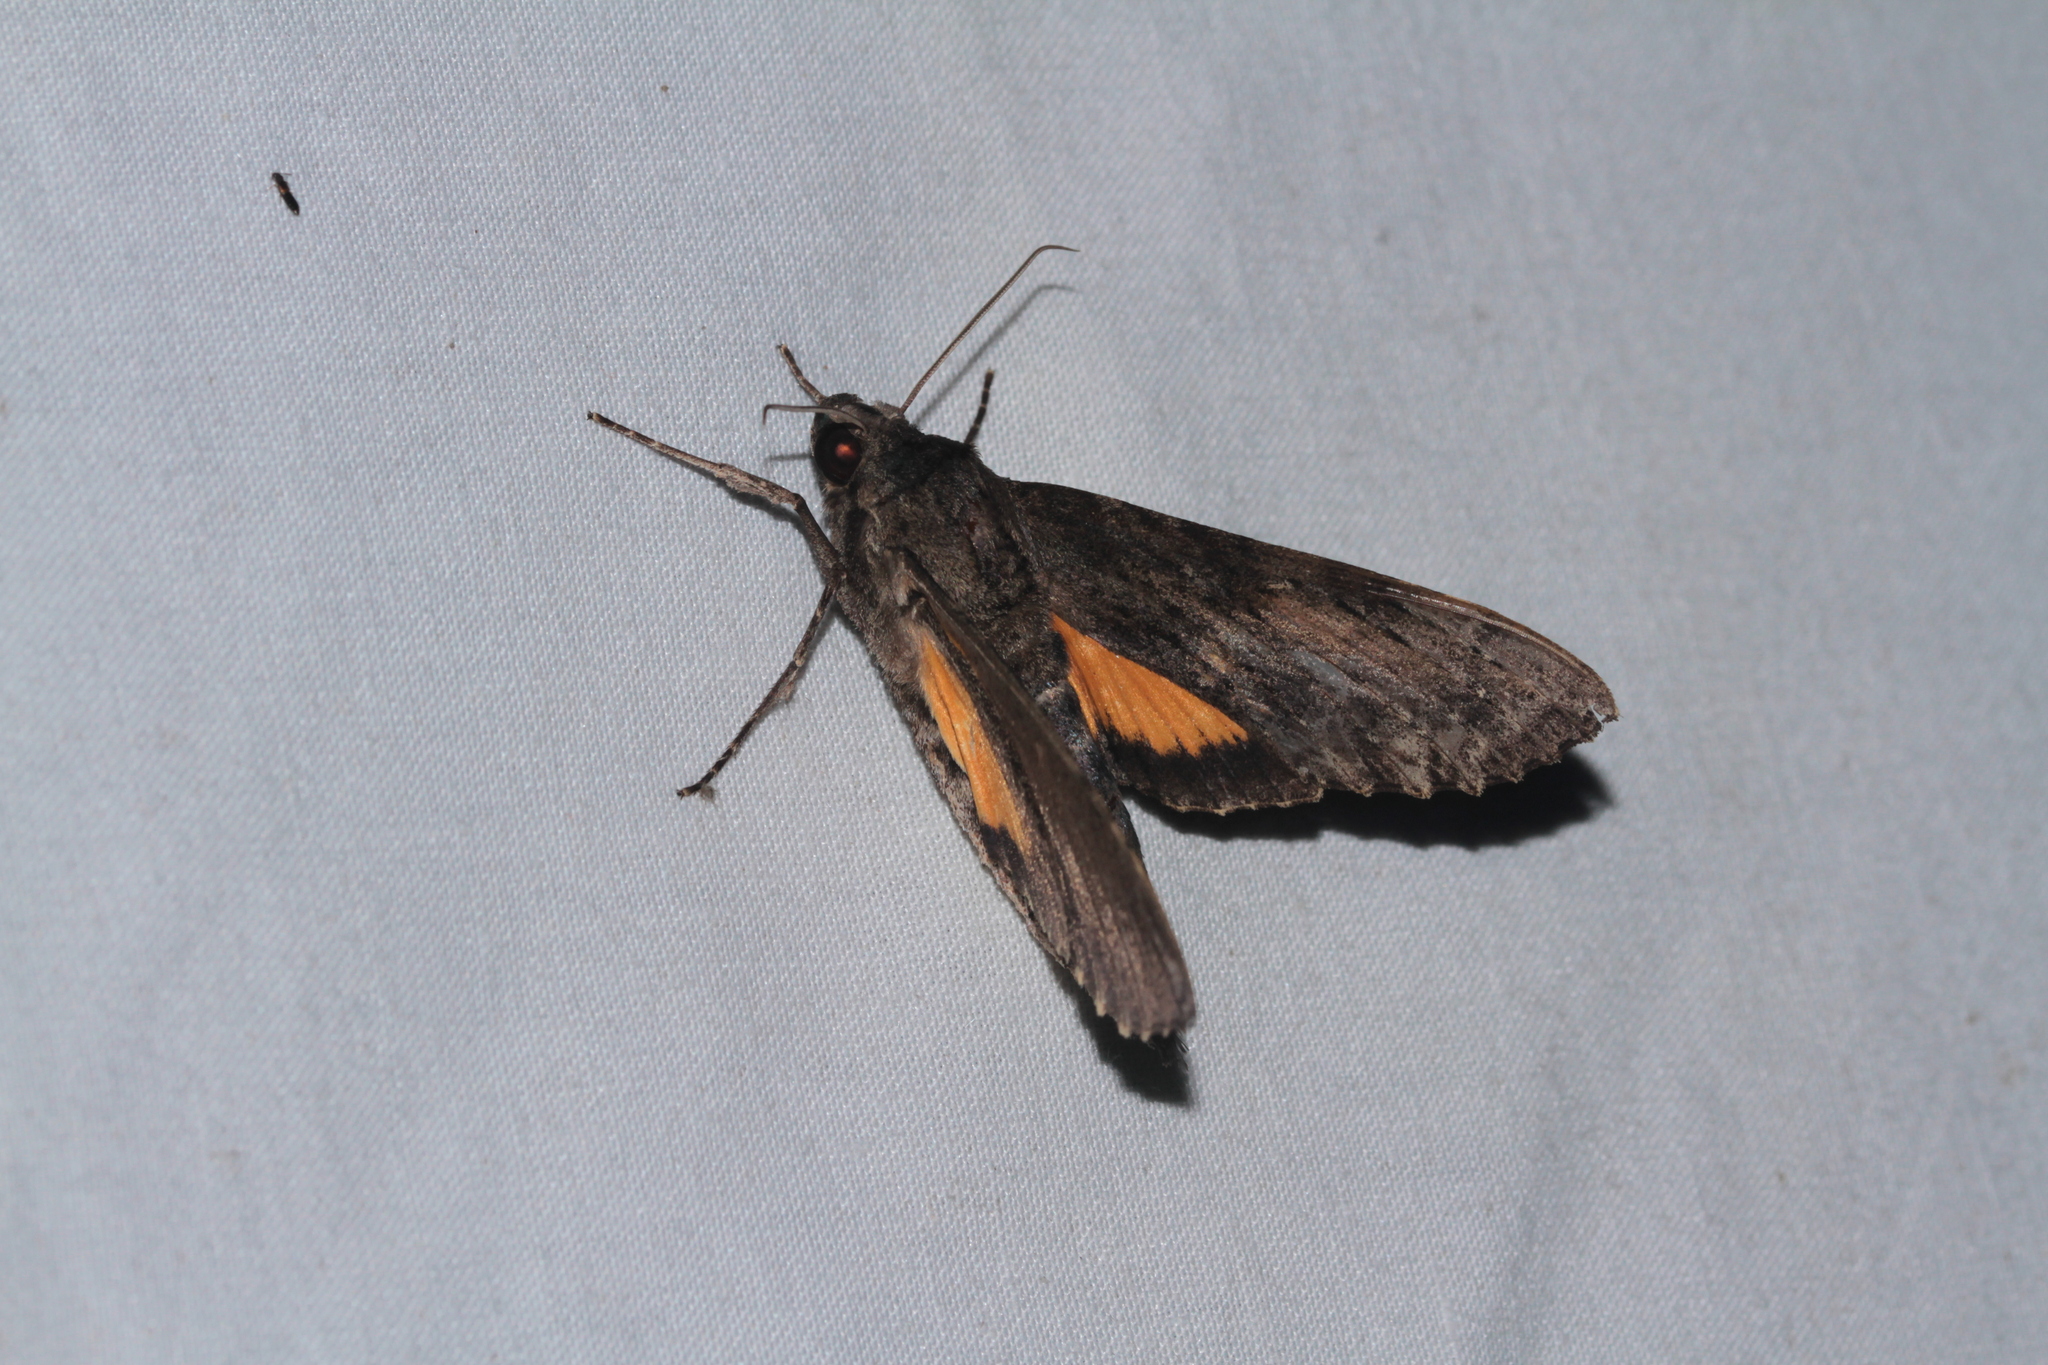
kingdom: Animalia
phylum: Arthropoda
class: Insecta
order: Lepidoptera
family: Sphingidae
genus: Isognathus
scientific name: Isognathus scyron
